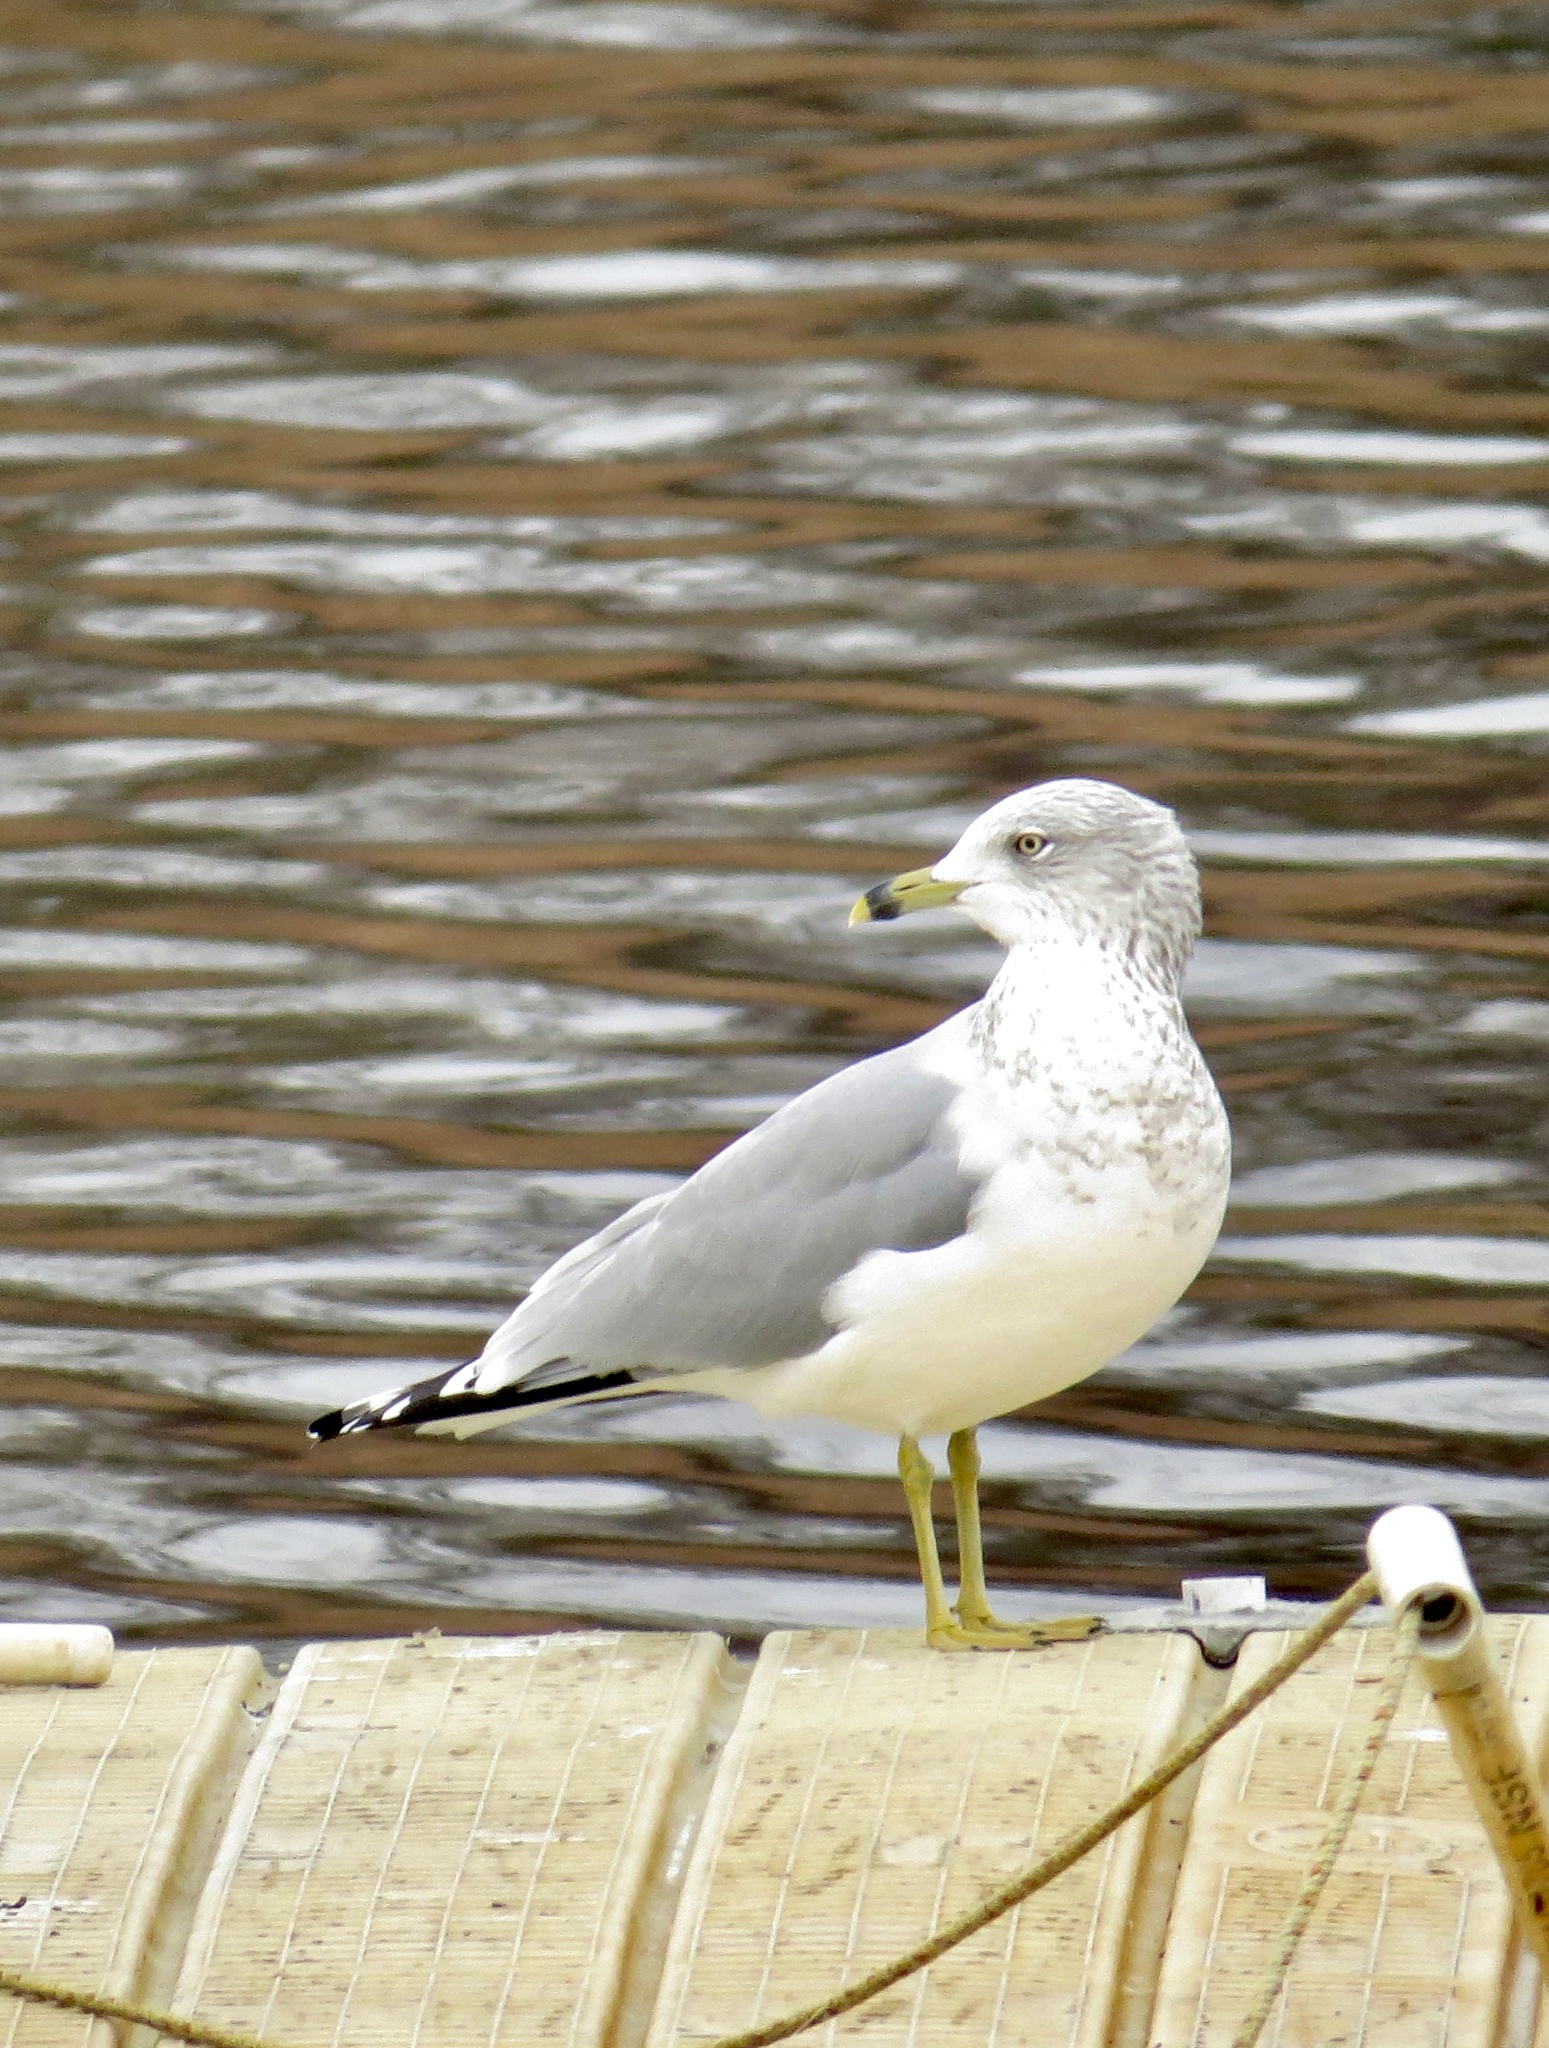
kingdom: Animalia
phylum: Chordata
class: Aves
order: Charadriiformes
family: Laridae
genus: Larus
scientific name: Larus delawarensis
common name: Ring-billed gull
